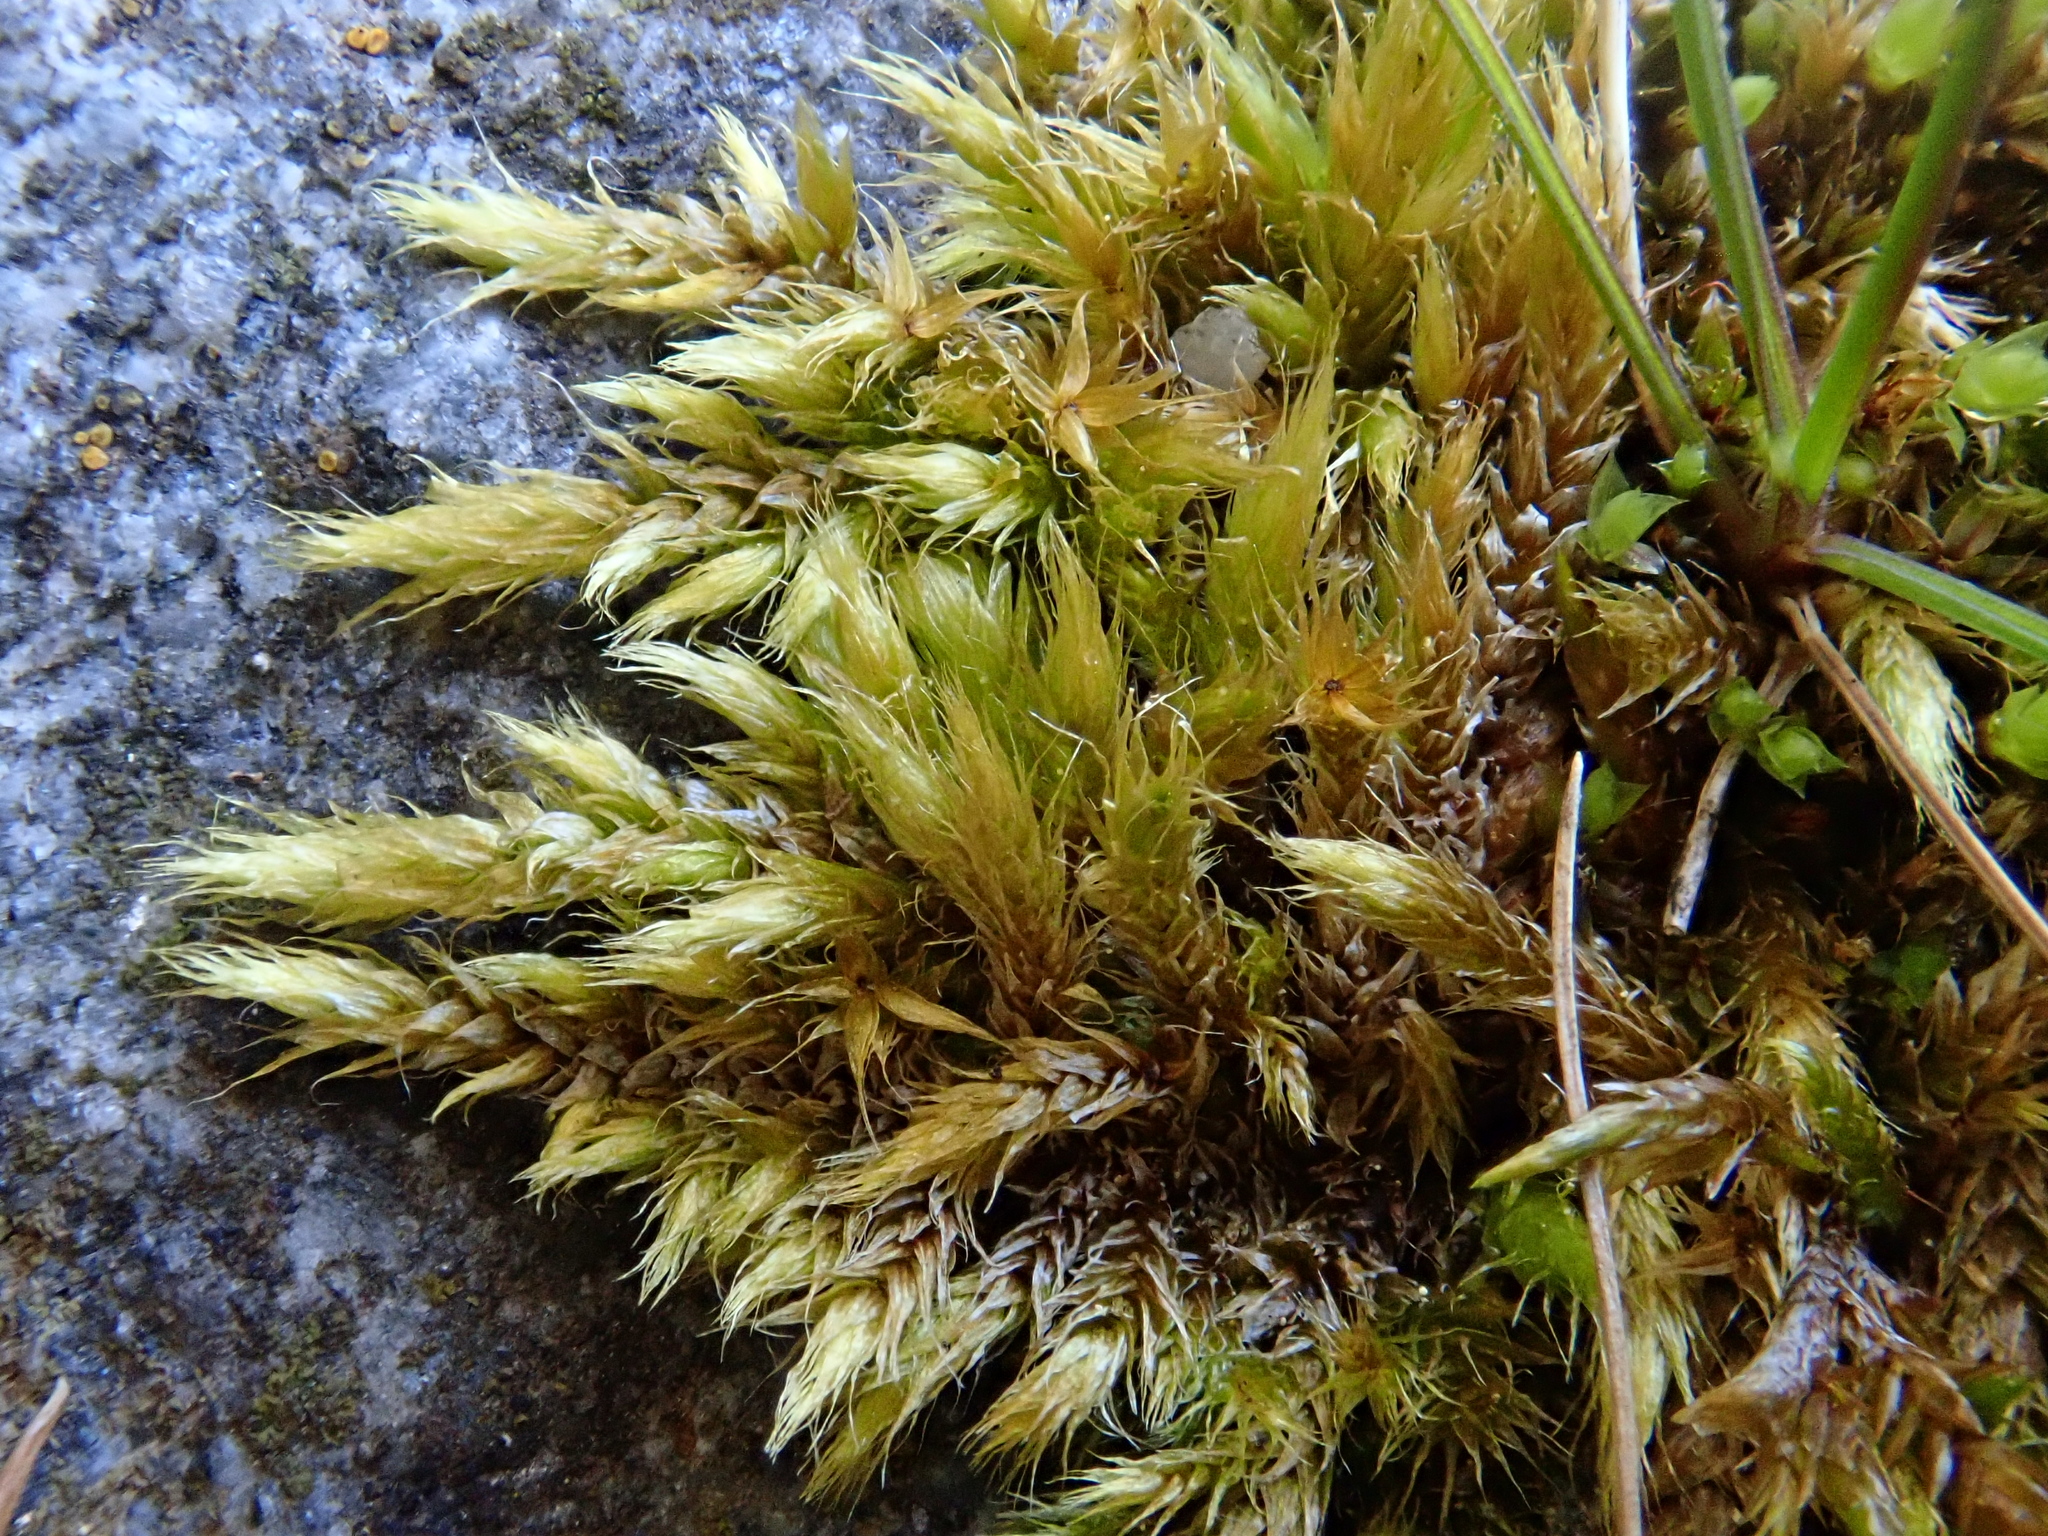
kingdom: Plantae
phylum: Bryophyta
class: Bryopsida
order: Hypnales
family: Brachytheciaceae
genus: Brachythecium
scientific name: Brachythecium glareosum
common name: Streaky feather-moss
